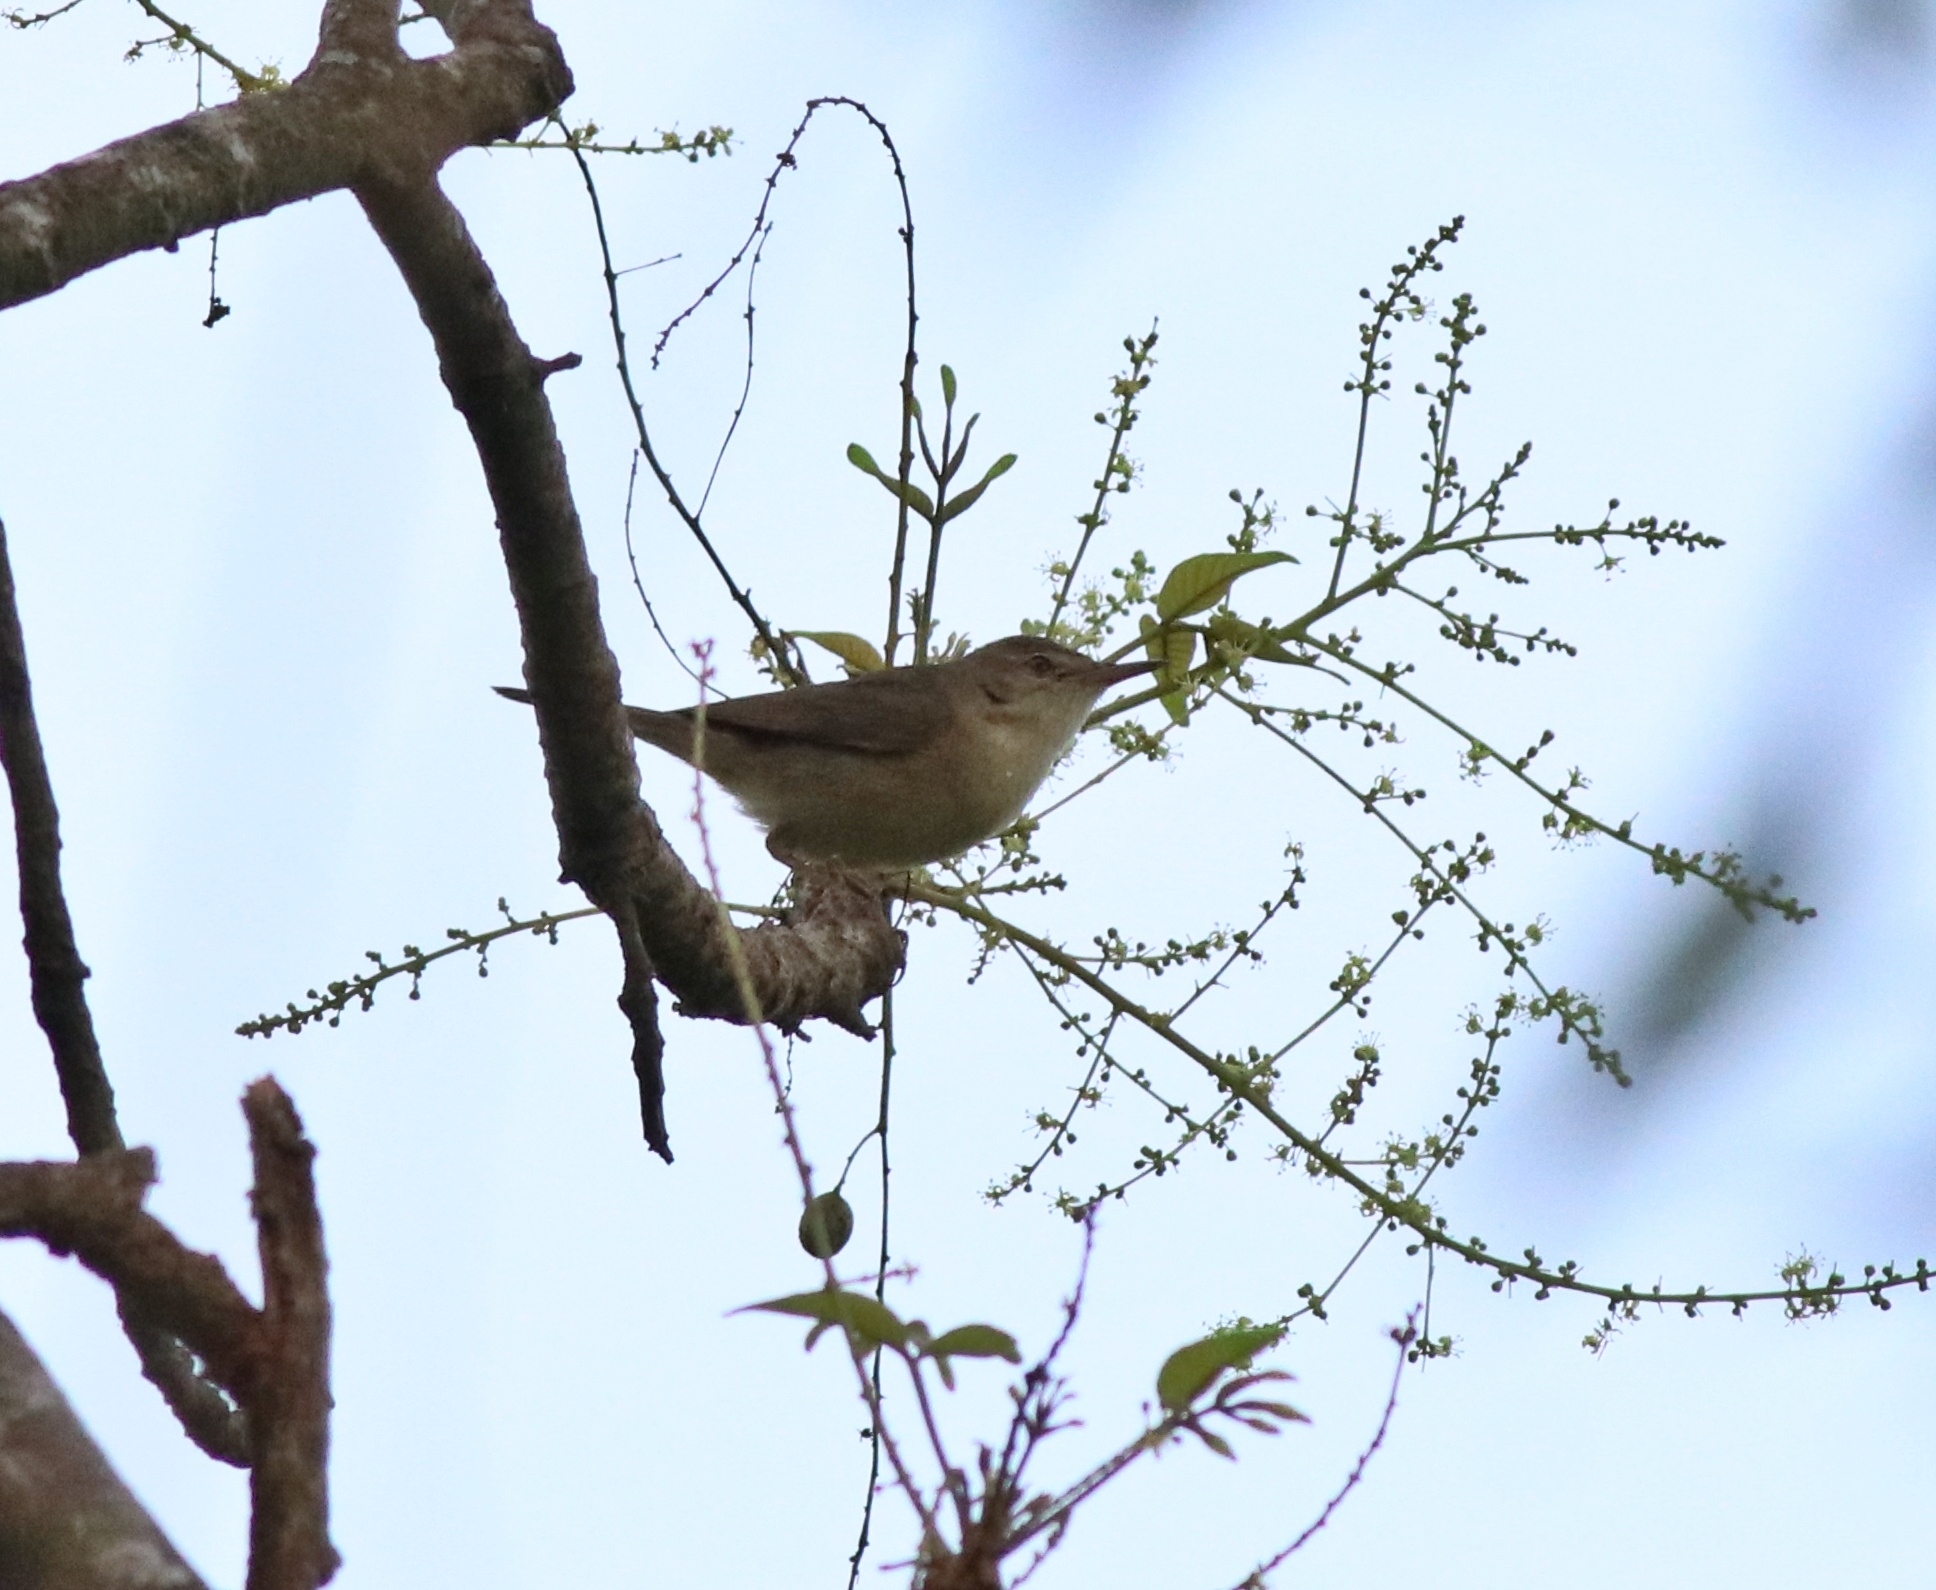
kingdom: Animalia
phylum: Chordata
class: Aves
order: Passeriformes
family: Acrocephalidae
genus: Acrocephalus
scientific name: Acrocephalus dumetorum
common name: Blyth's reed warbler
